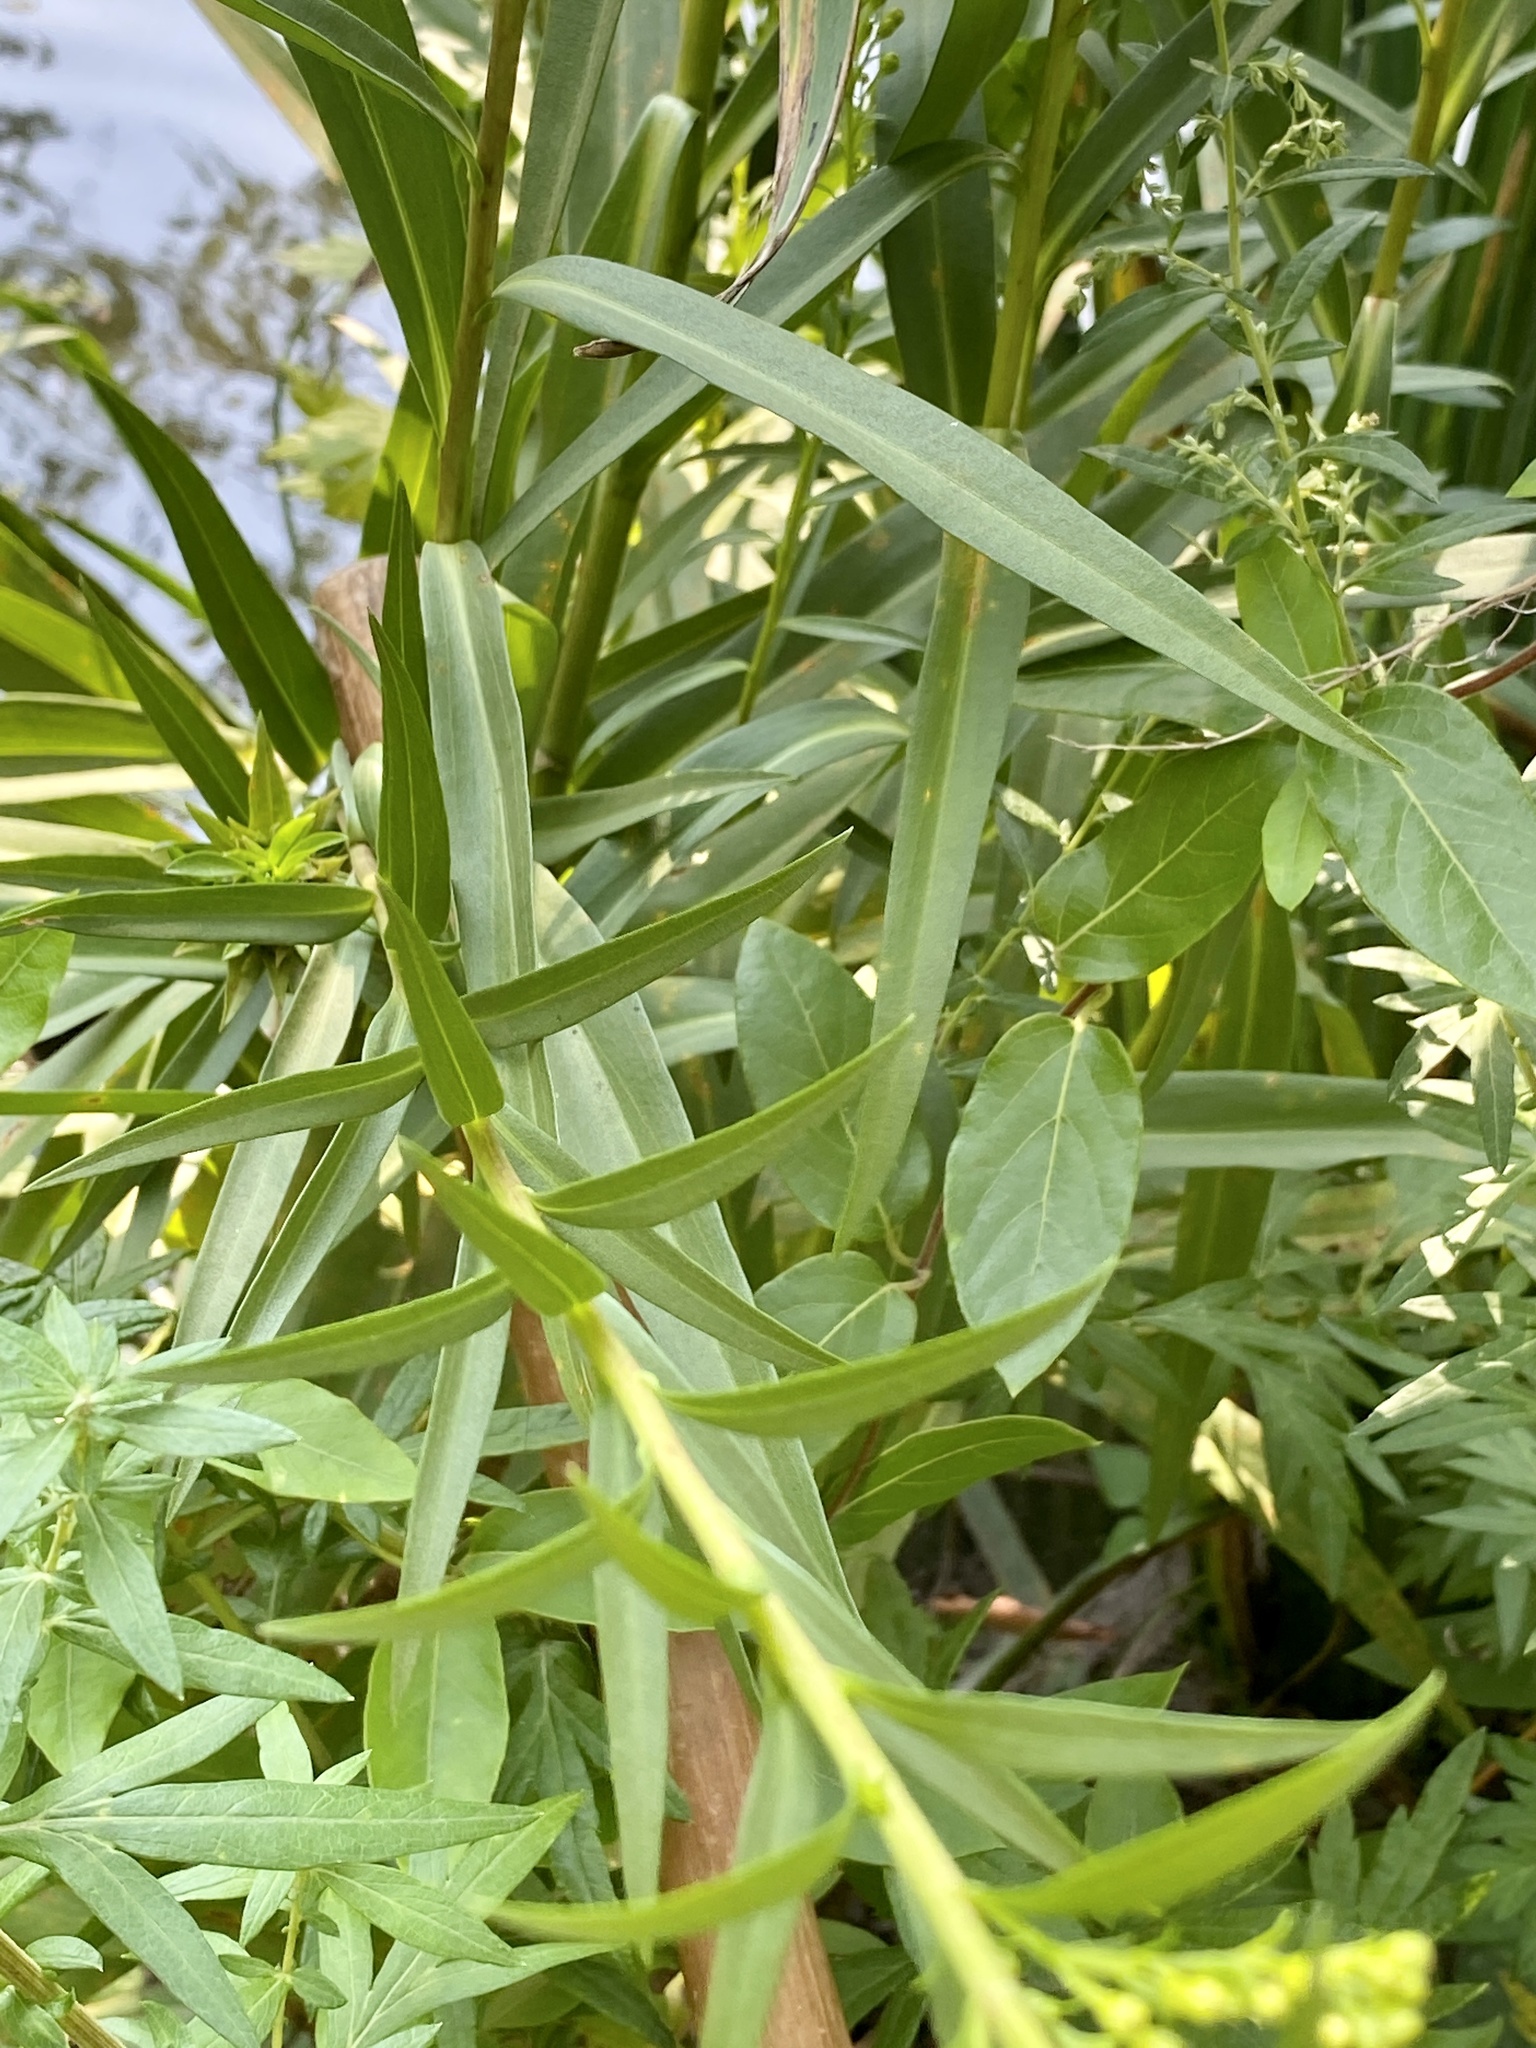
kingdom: Plantae
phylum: Tracheophyta
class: Magnoliopsida
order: Asterales
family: Asteraceae
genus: Solidago
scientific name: Solidago sempervirens
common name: Salt-marsh goldenrod
